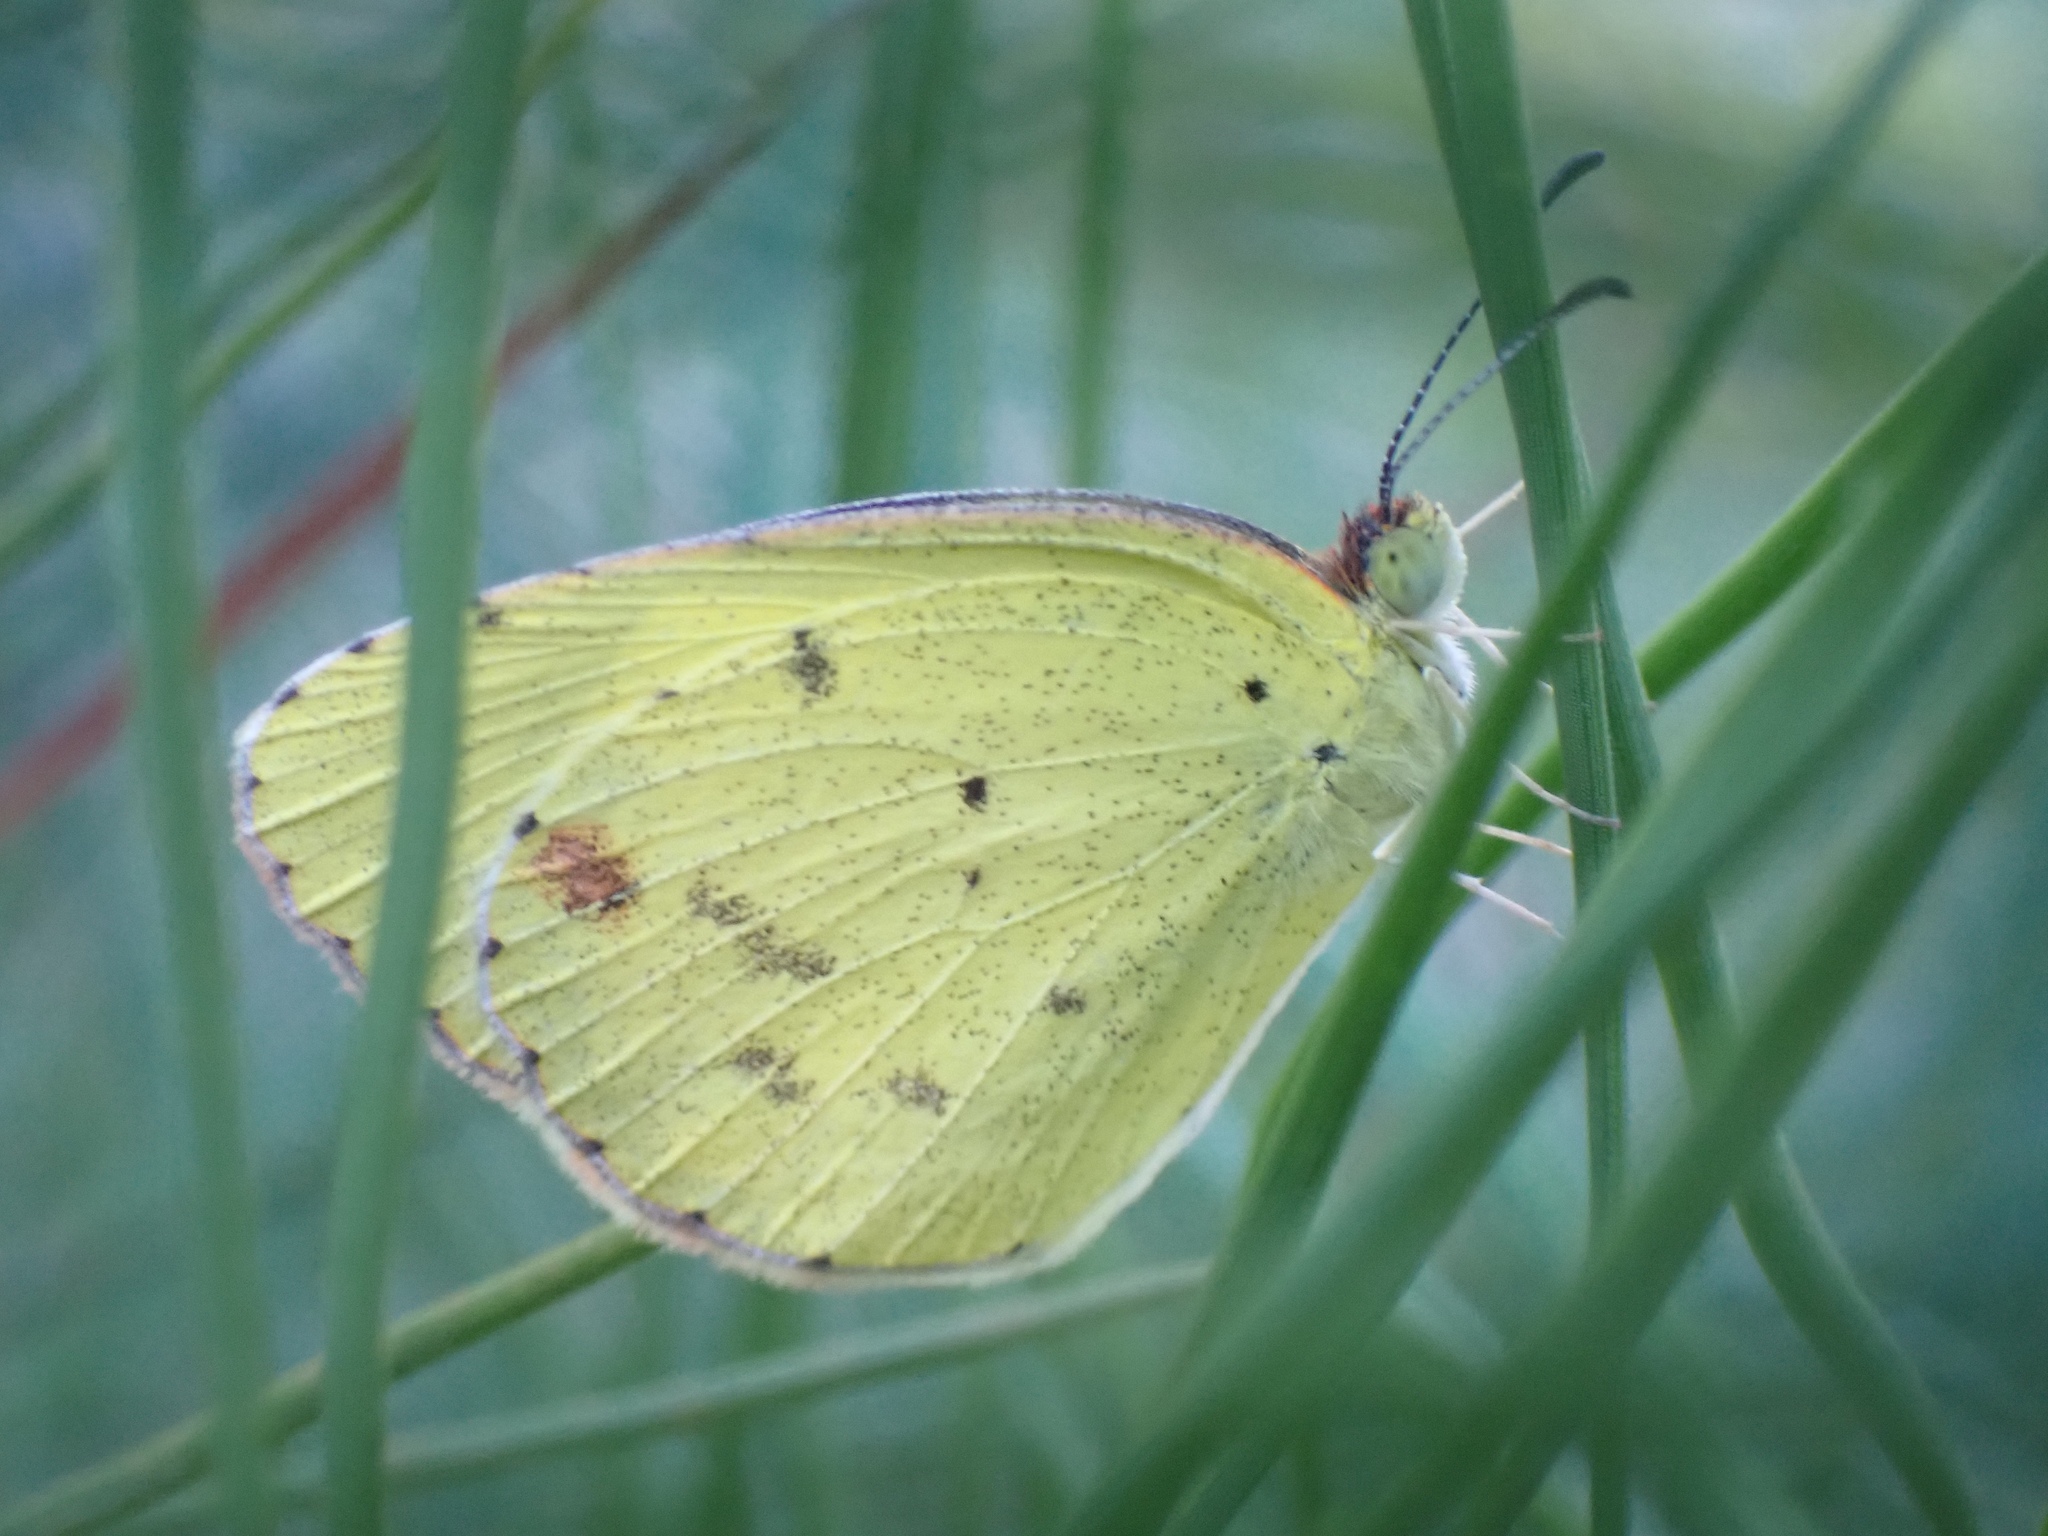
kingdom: Animalia
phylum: Arthropoda
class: Insecta
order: Lepidoptera
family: Pieridae
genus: Pyrisitia
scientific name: Pyrisitia lisa
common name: Little yellow
